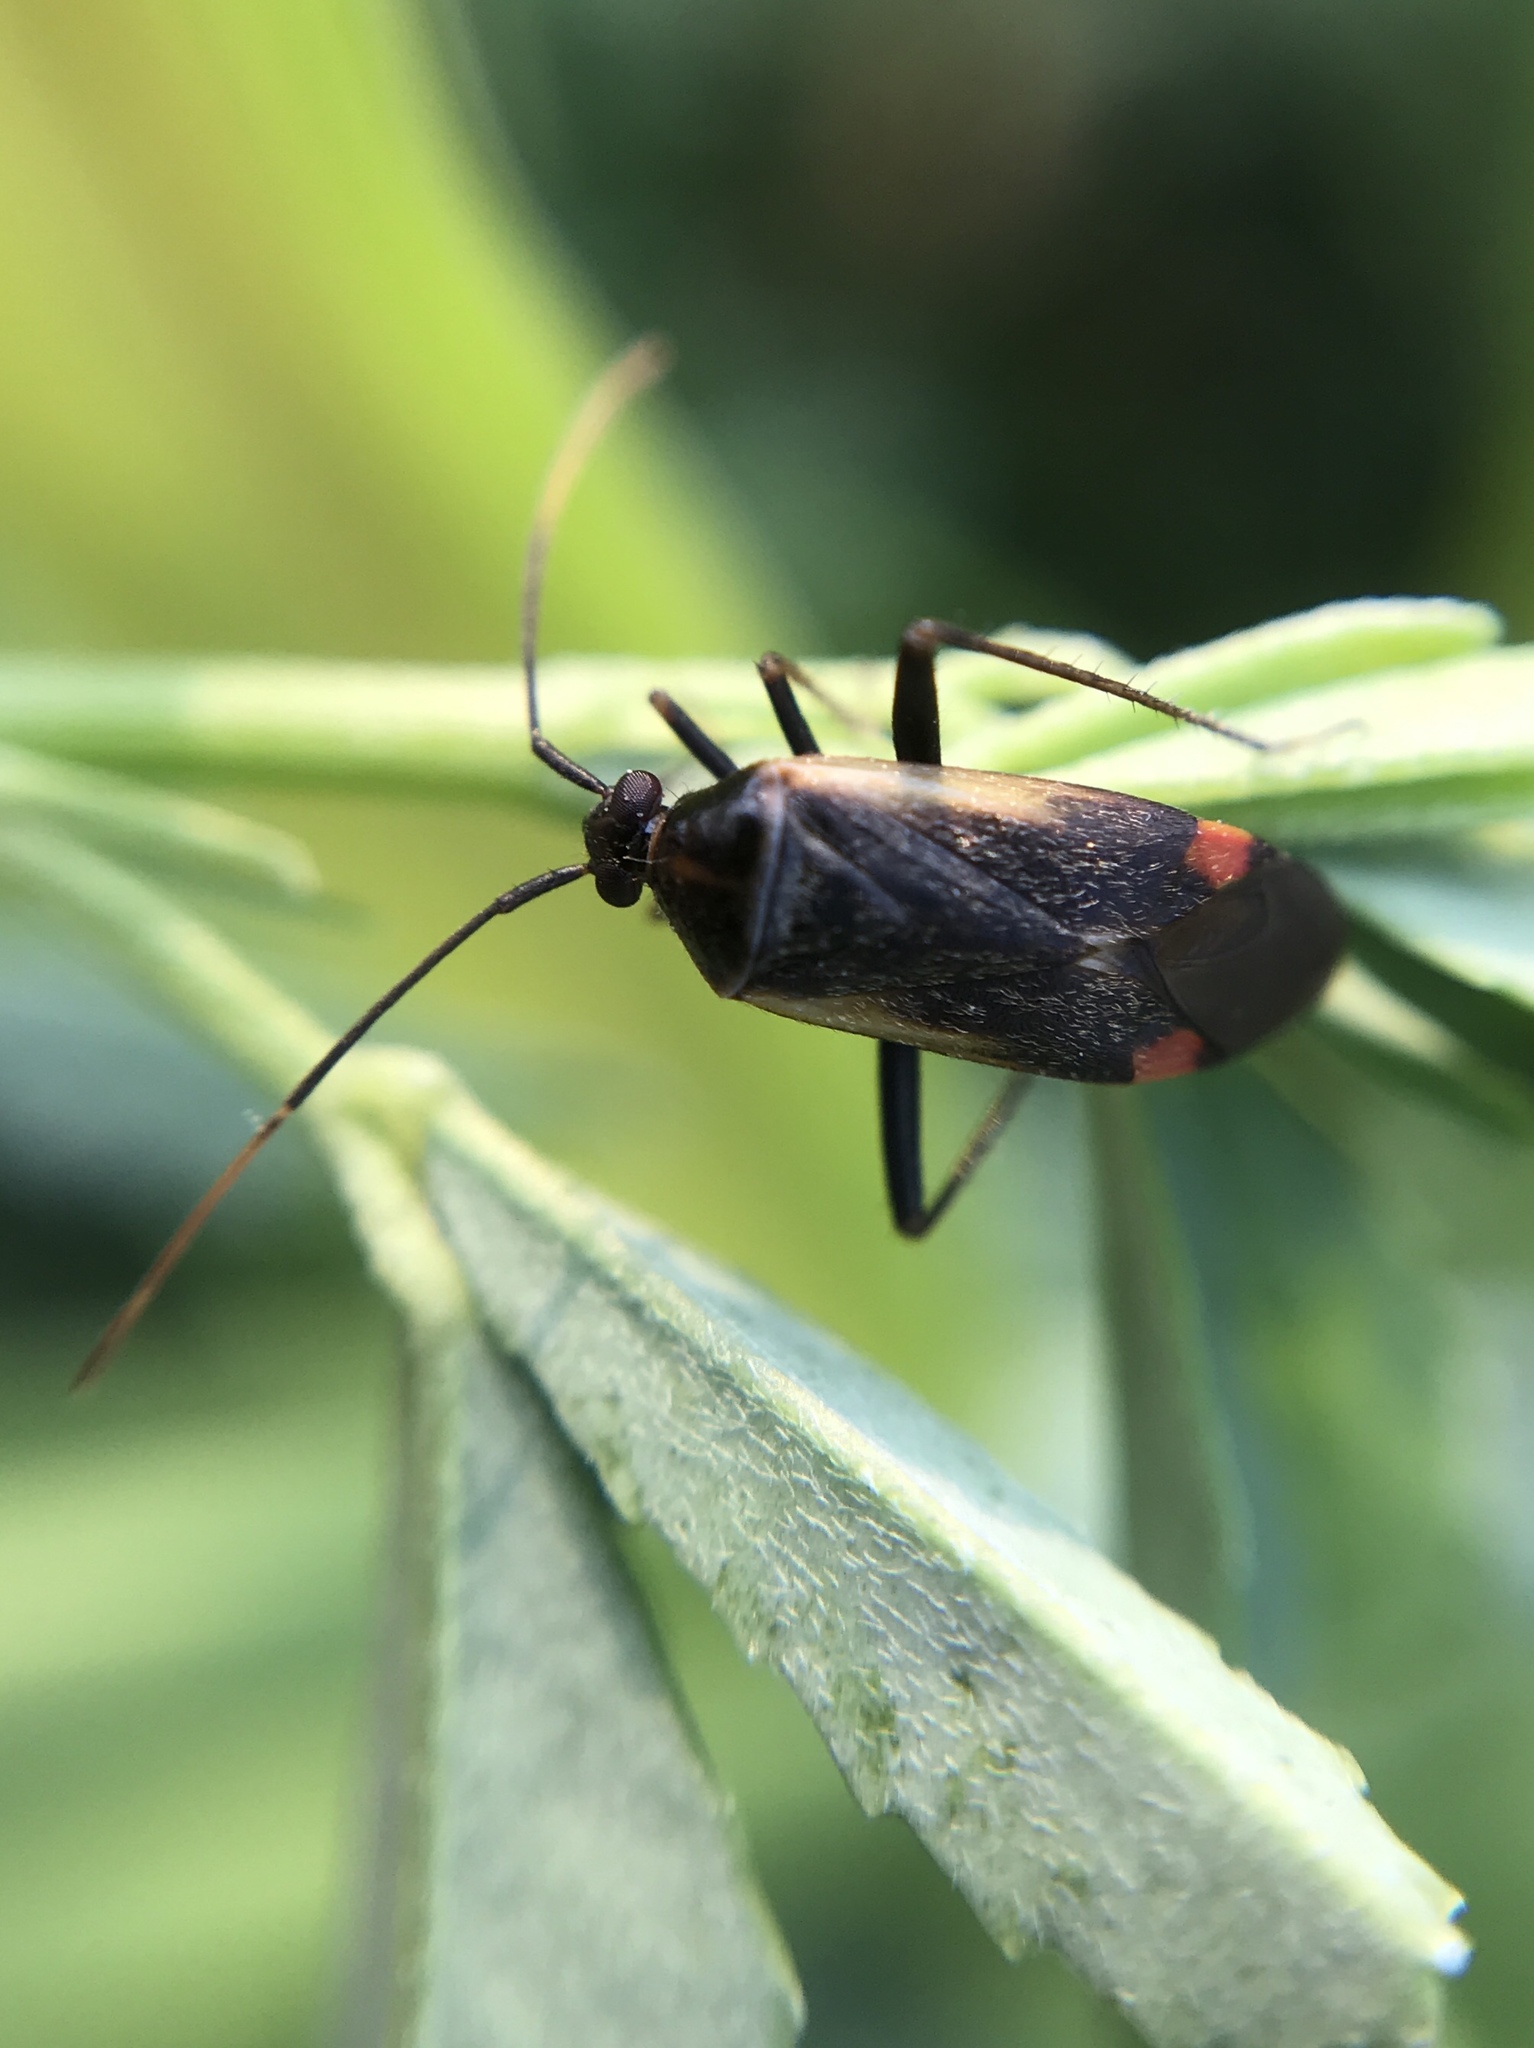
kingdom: Animalia
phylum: Arthropoda
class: Insecta
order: Hemiptera
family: Miridae
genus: Adelphocoris
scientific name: Adelphocoris seticornis
